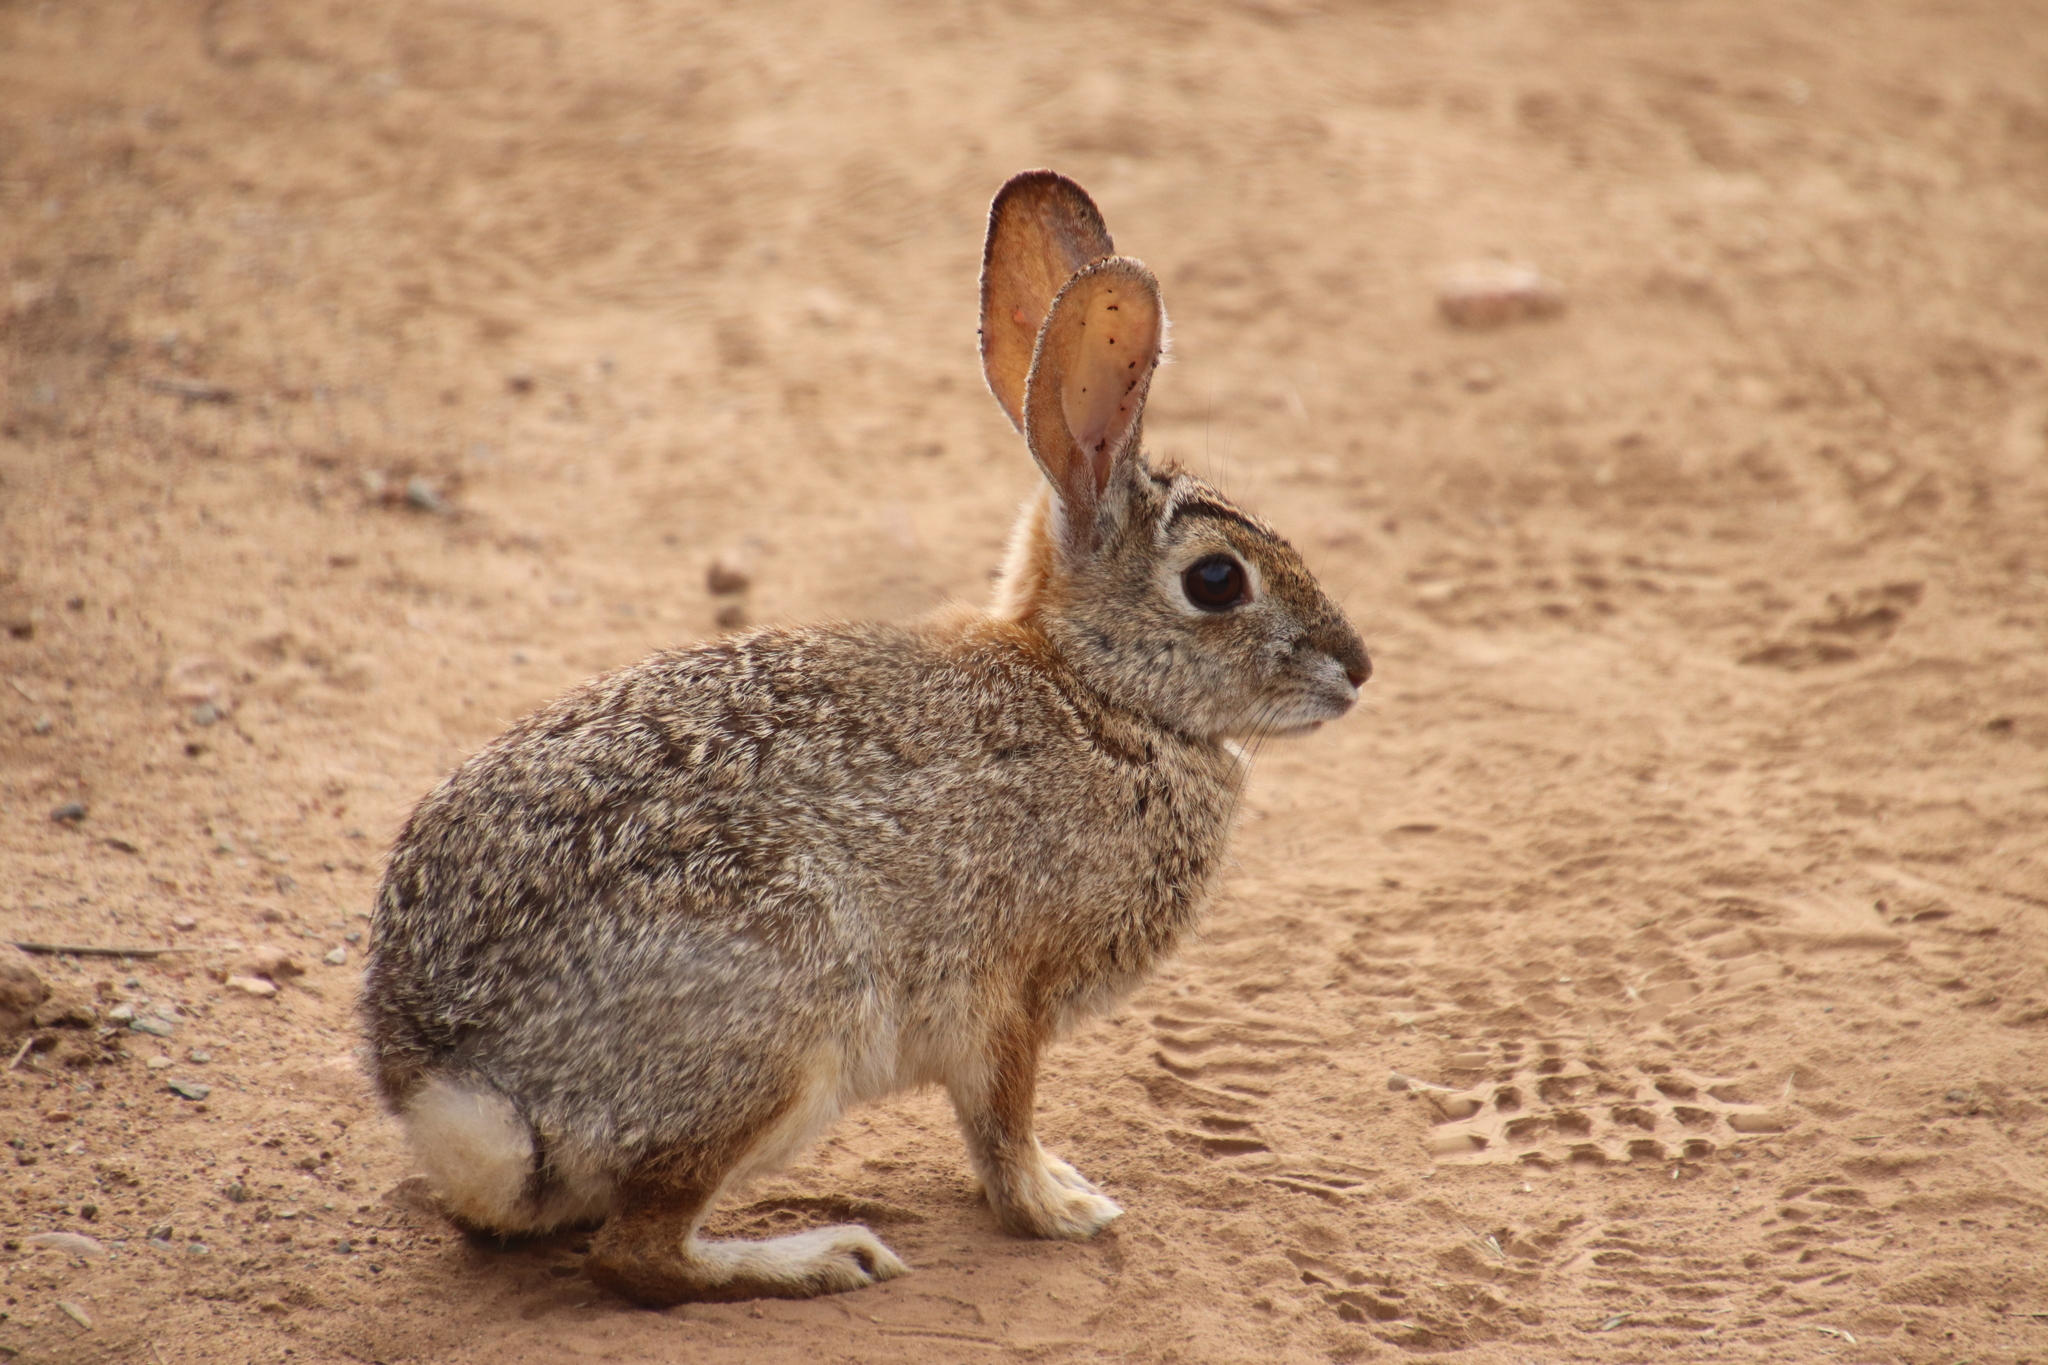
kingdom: Animalia
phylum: Chordata
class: Mammalia
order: Lagomorpha
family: Leporidae
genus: Sylvilagus
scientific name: Sylvilagus audubonii
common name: Desert cottontail
